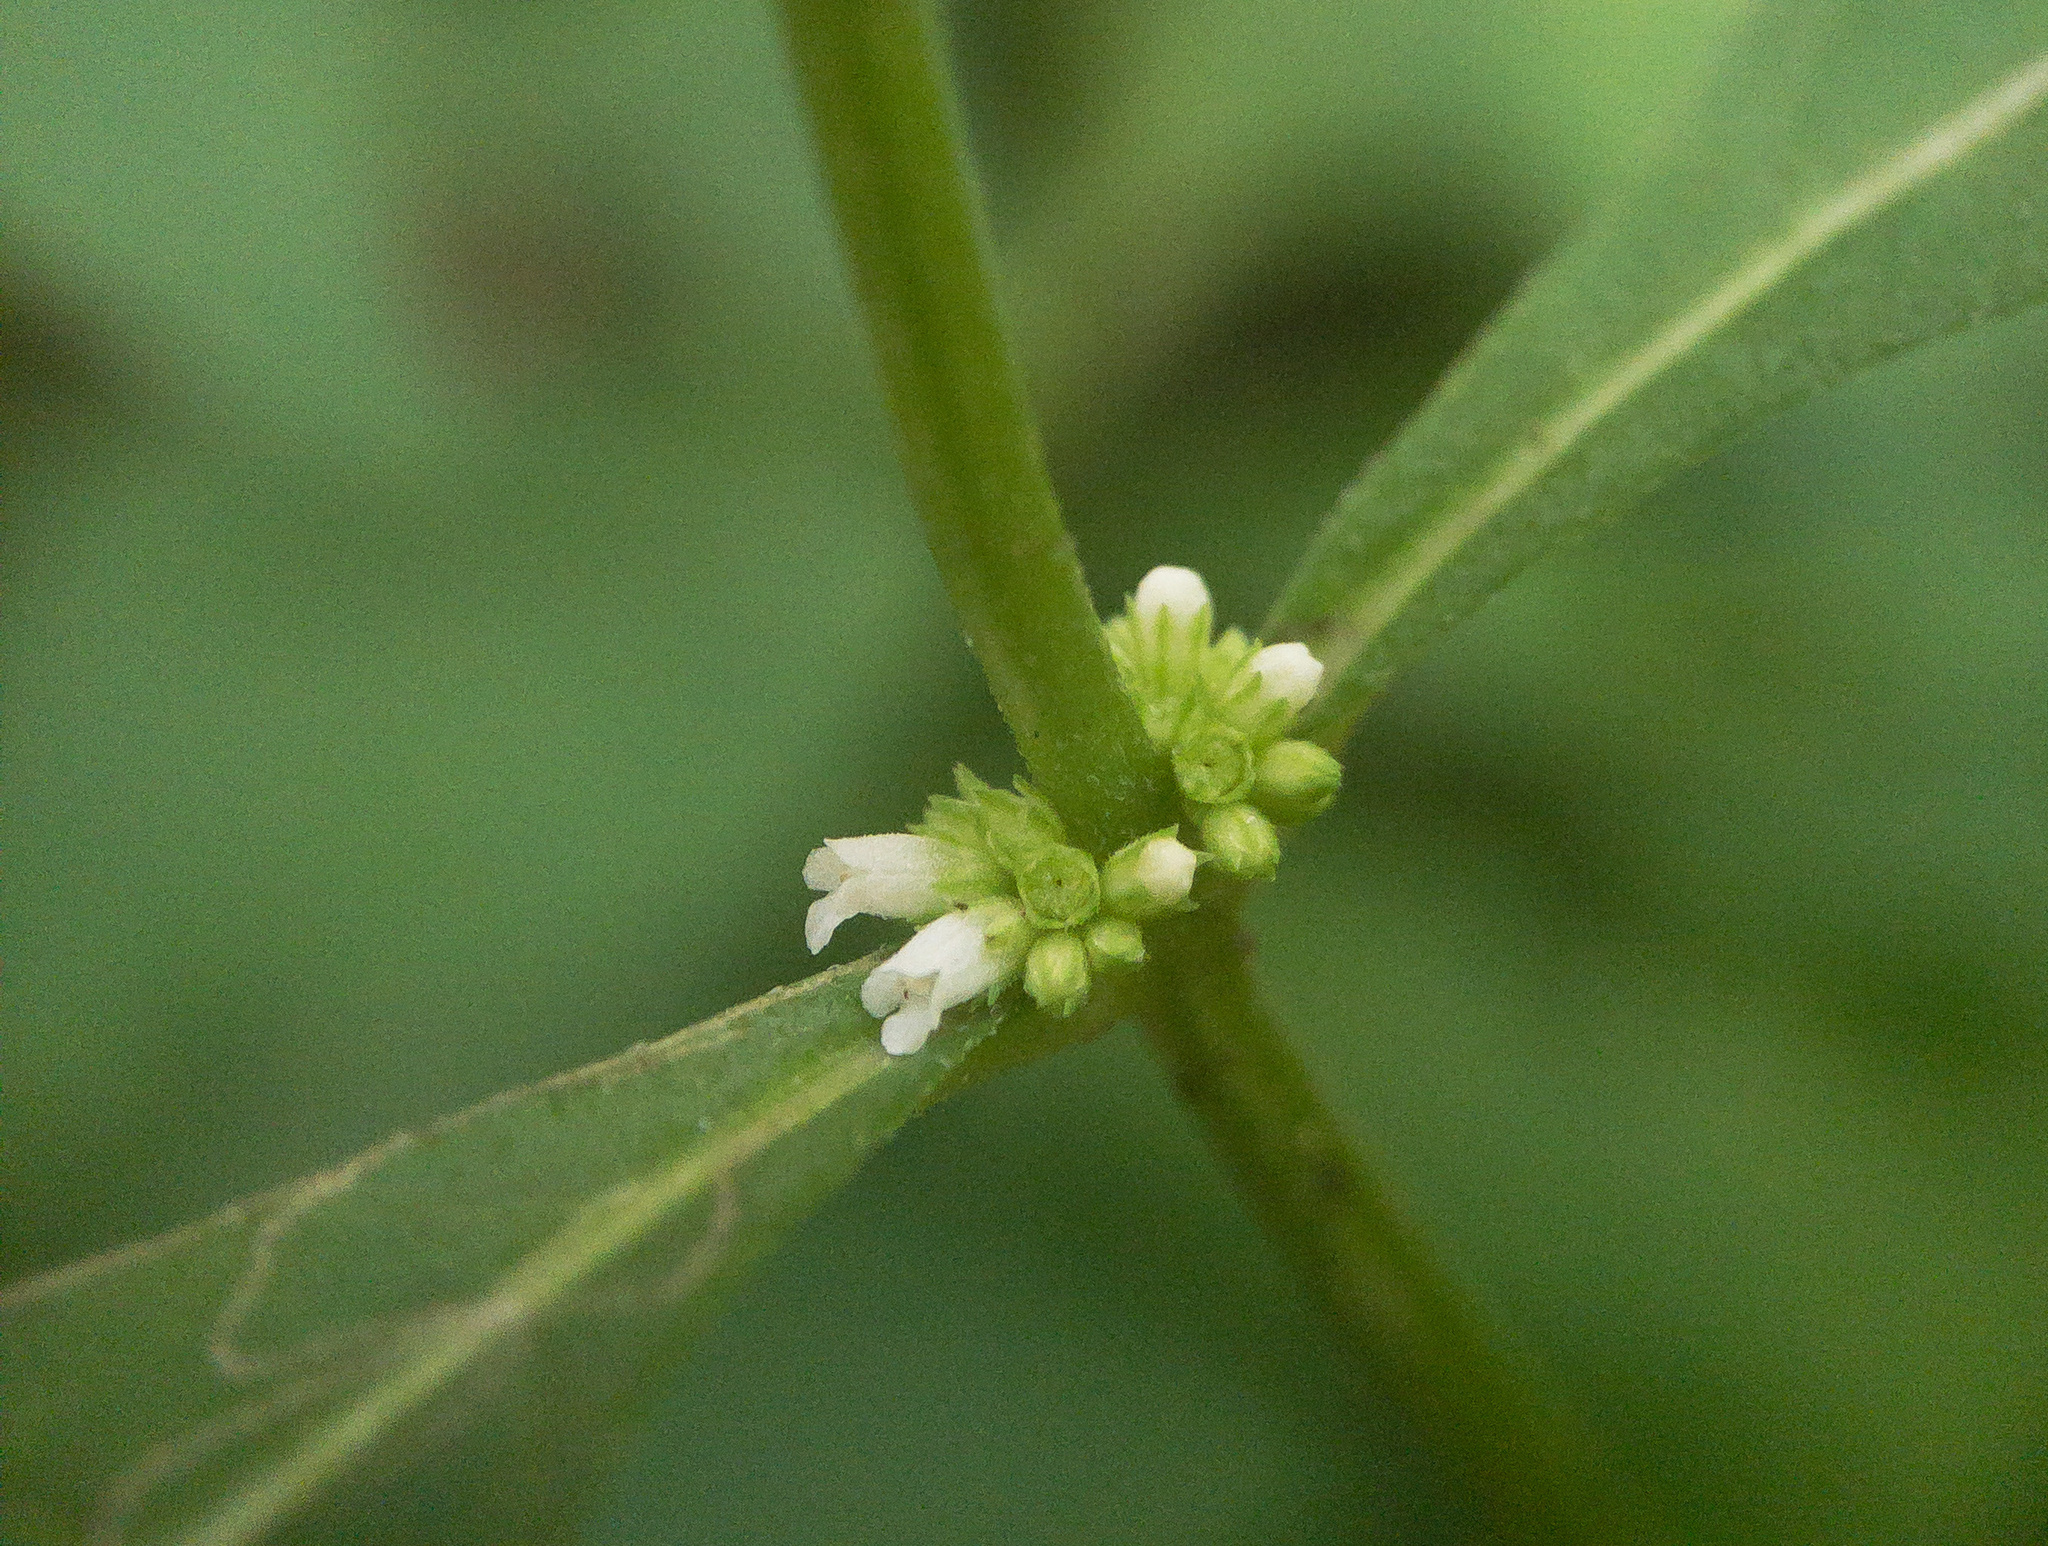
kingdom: Plantae
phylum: Tracheophyta
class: Magnoliopsida
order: Lamiales
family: Lamiaceae
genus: Lycopus
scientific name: Lycopus virginicus
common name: Bugleweed
